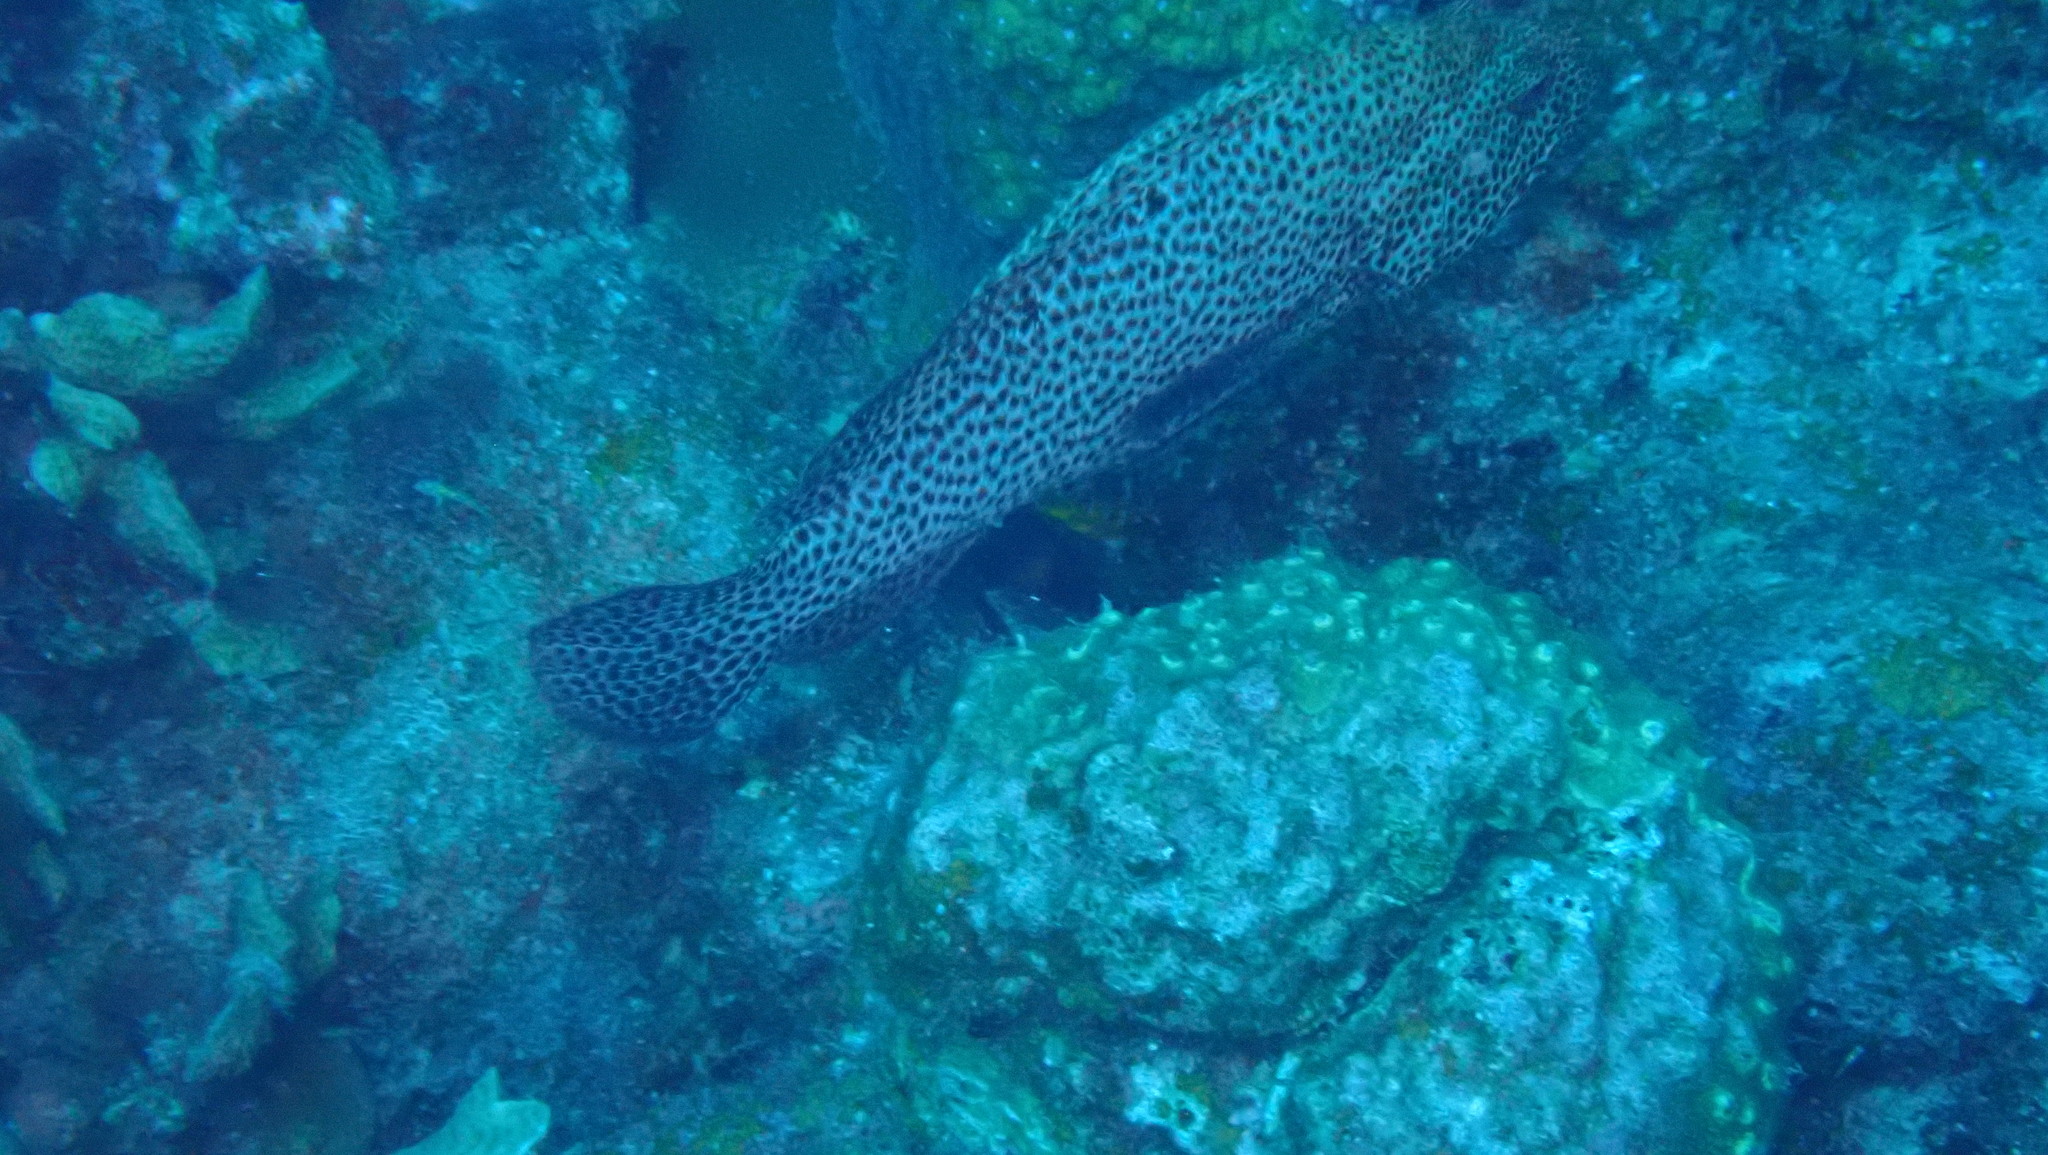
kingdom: Animalia
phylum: Chordata
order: Perciformes
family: Serranidae
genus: Cephalopholis
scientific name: Cephalopholis cruentata
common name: Graysby
